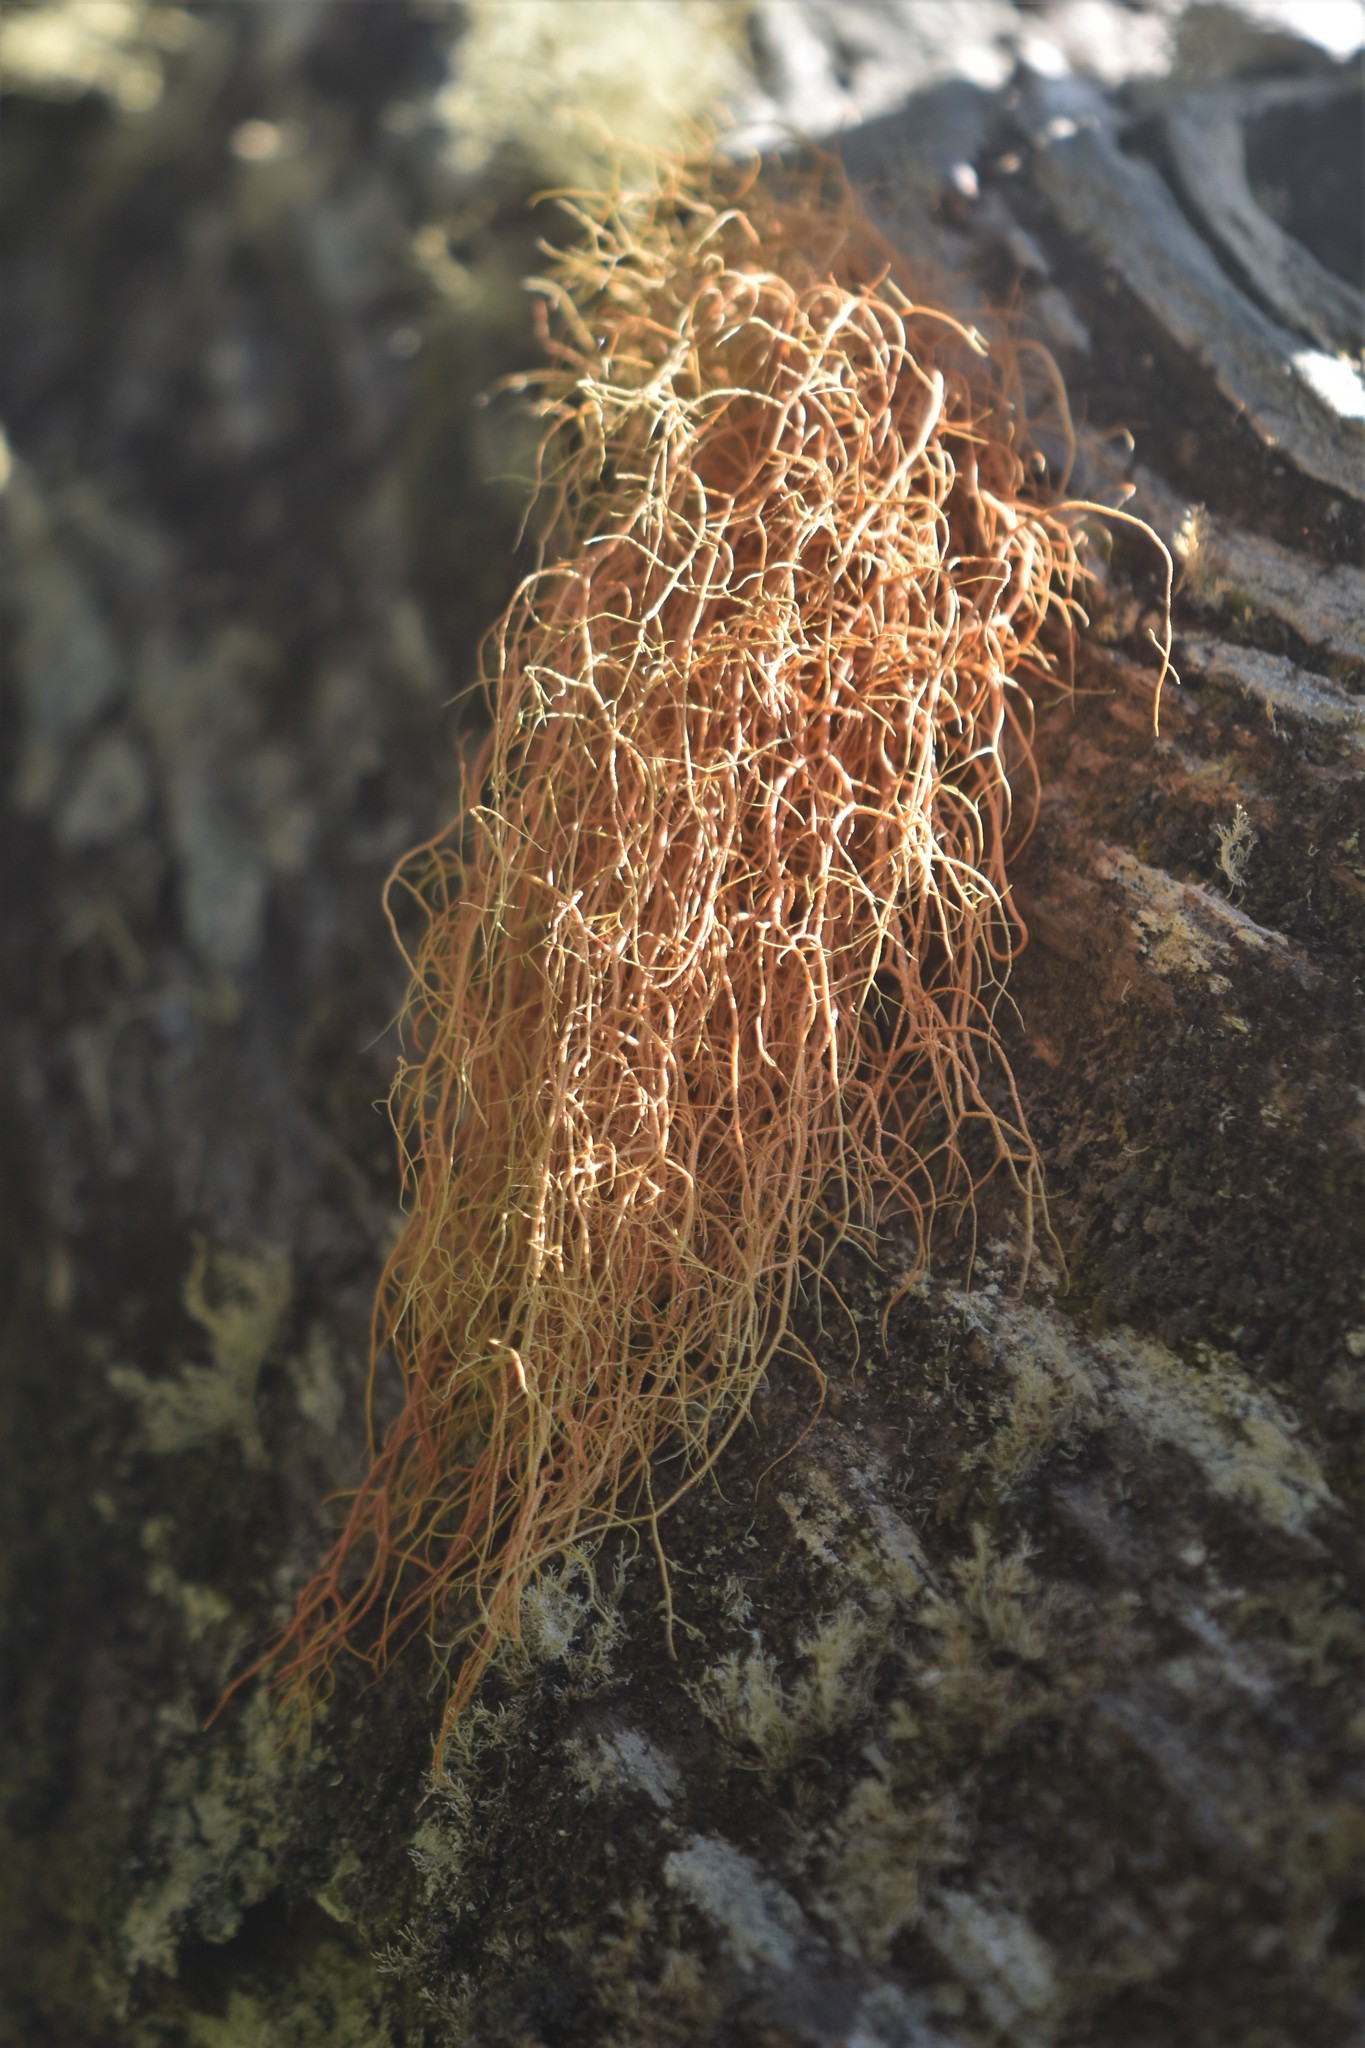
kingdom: Fungi
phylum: Ascomycota
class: Lecanoromycetes
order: Lecanorales
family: Parmeliaceae
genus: Usnea
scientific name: Usnea rubicunda
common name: Red beard lichen
